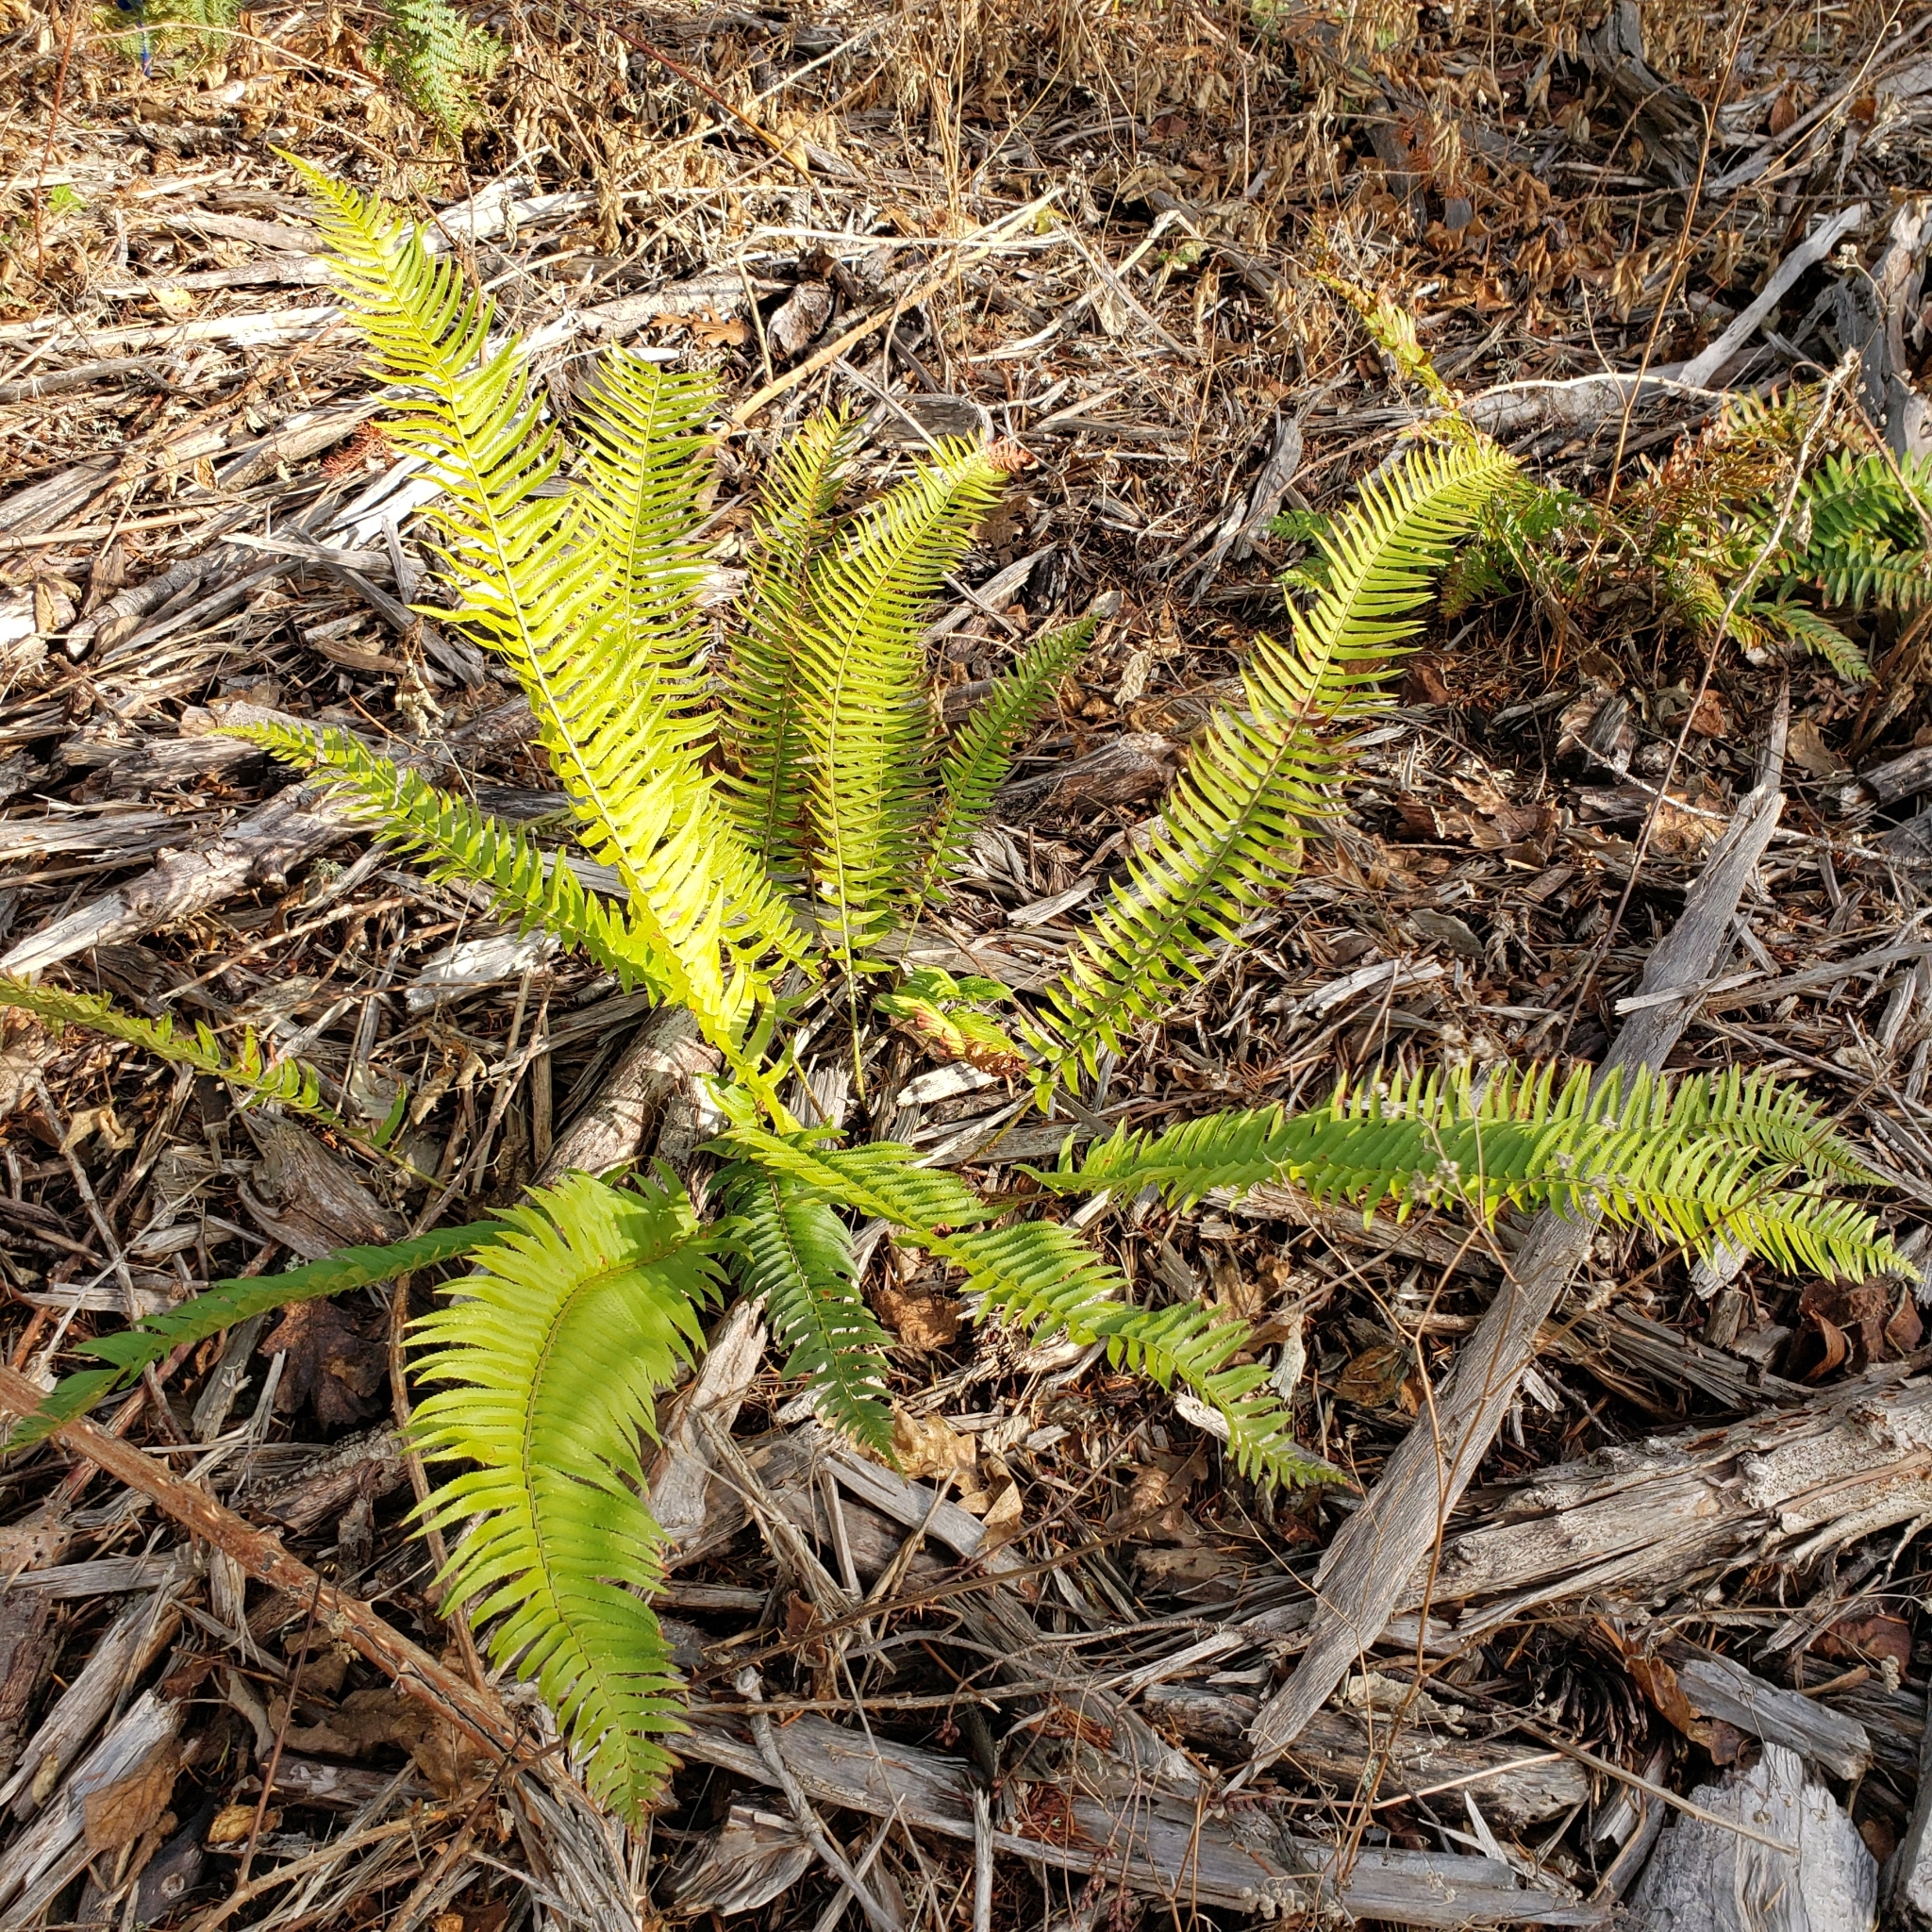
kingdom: Plantae
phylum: Tracheophyta
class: Polypodiopsida
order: Polypodiales
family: Dryopteridaceae
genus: Polystichum
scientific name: Polystichum munitum
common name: Western sword-fern
